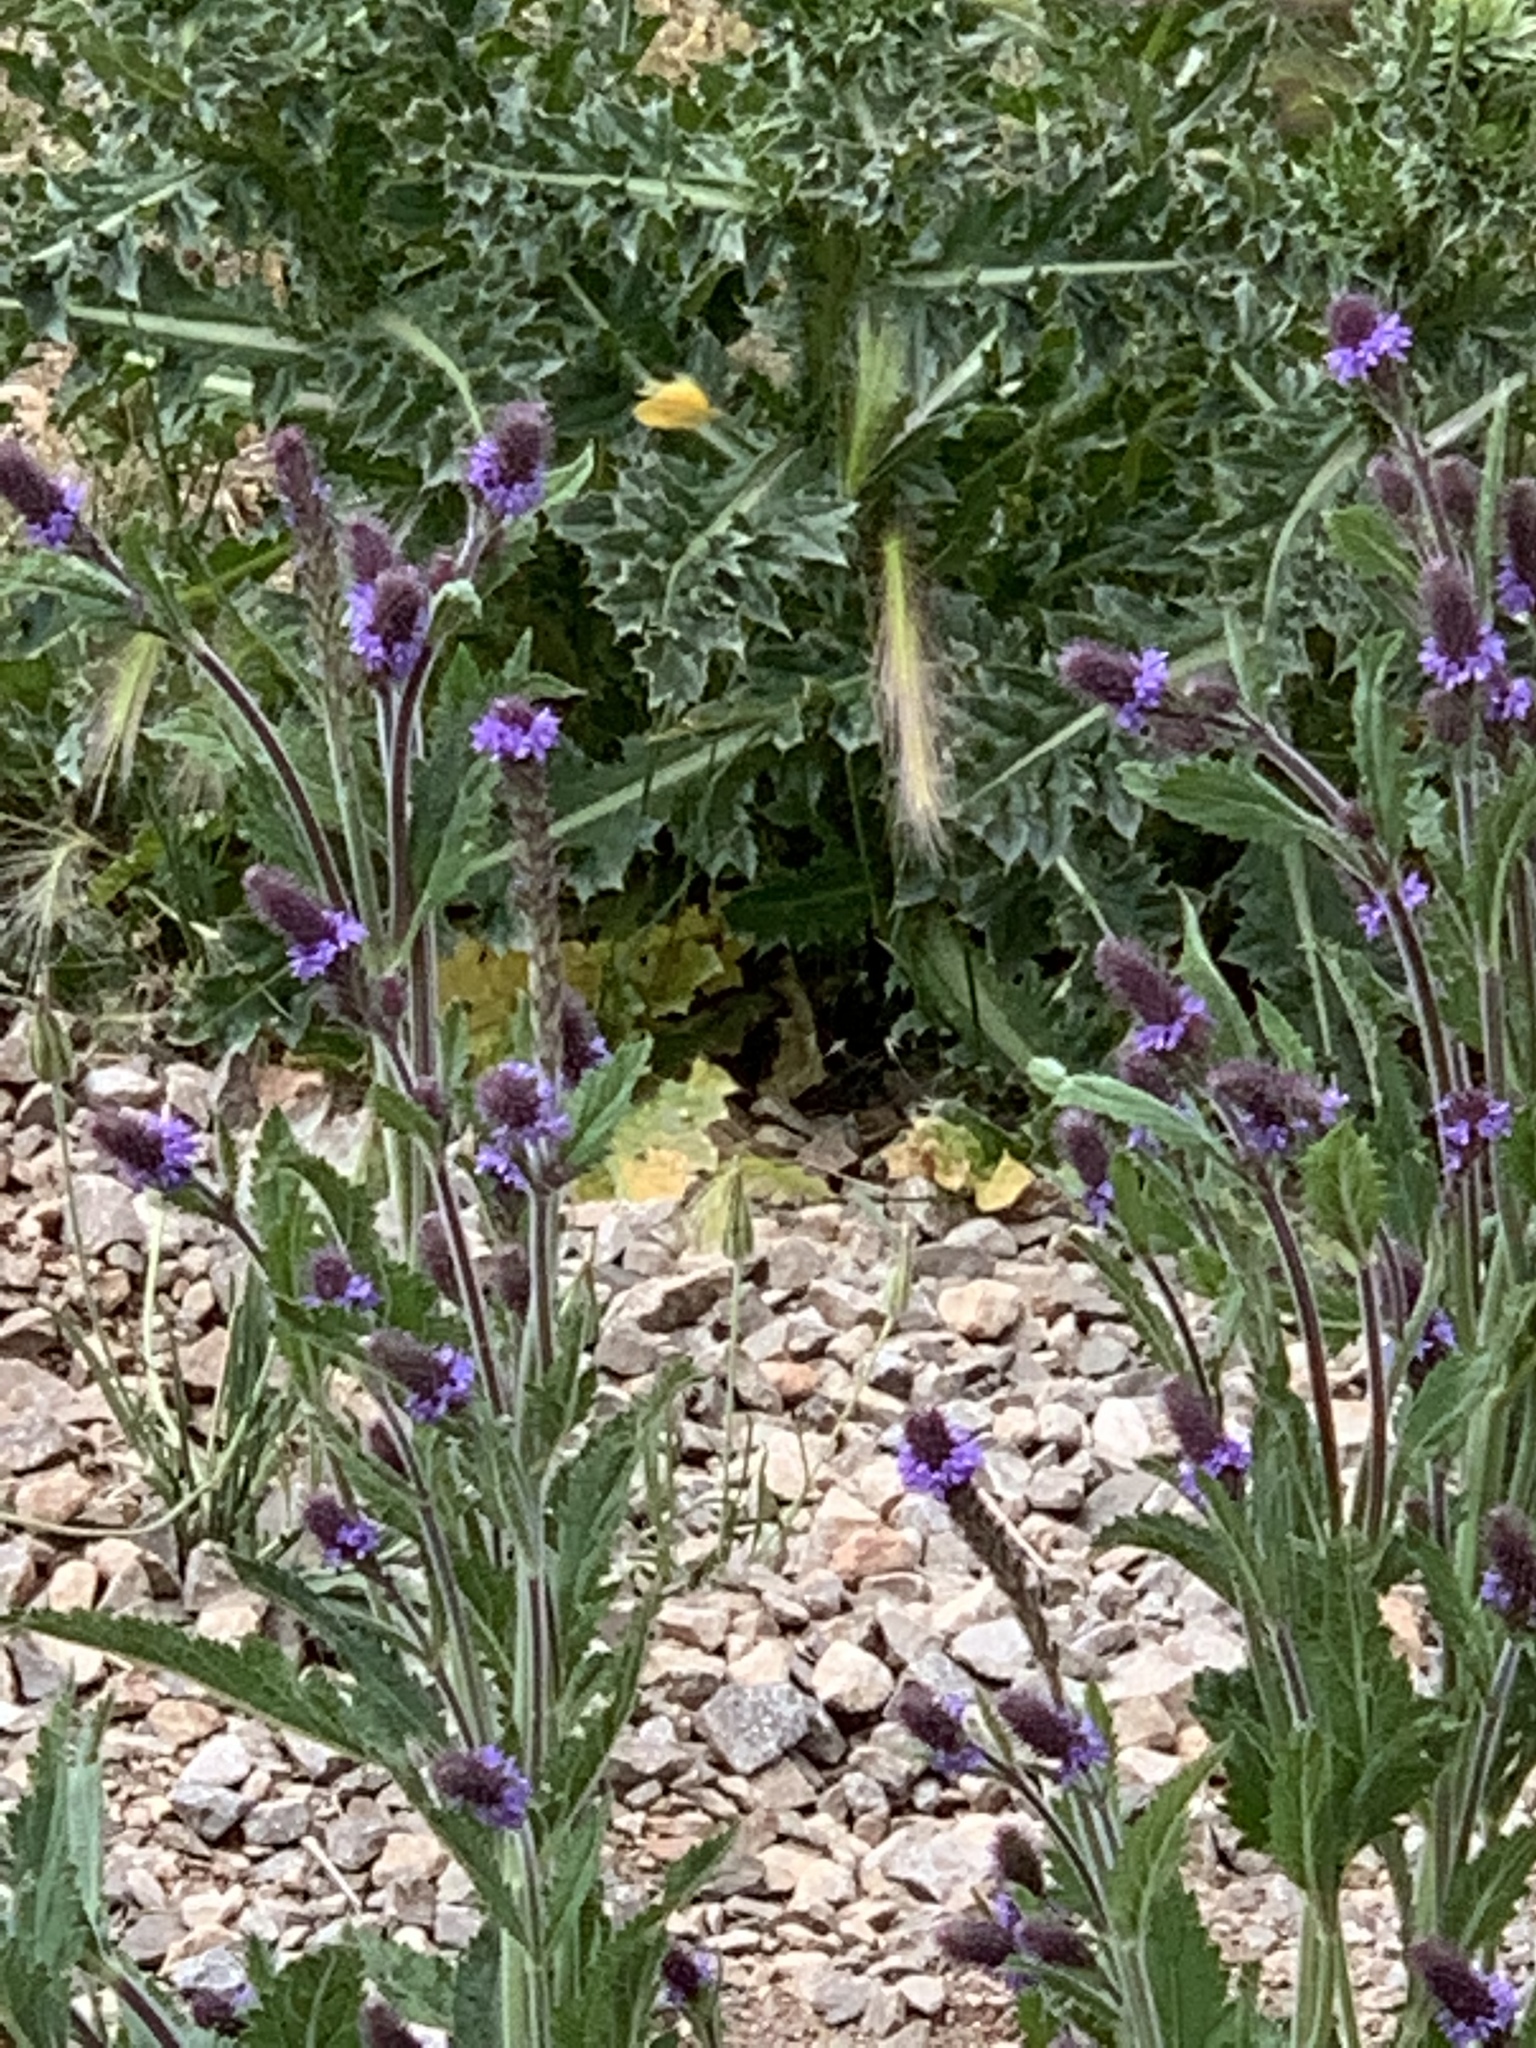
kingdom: Plantae
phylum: Tracheophyta
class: Magnoliopsida
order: Lamiales
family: Verbenaceae
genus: Verbena
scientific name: Verbena macdougalii
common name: New mexico vervain
